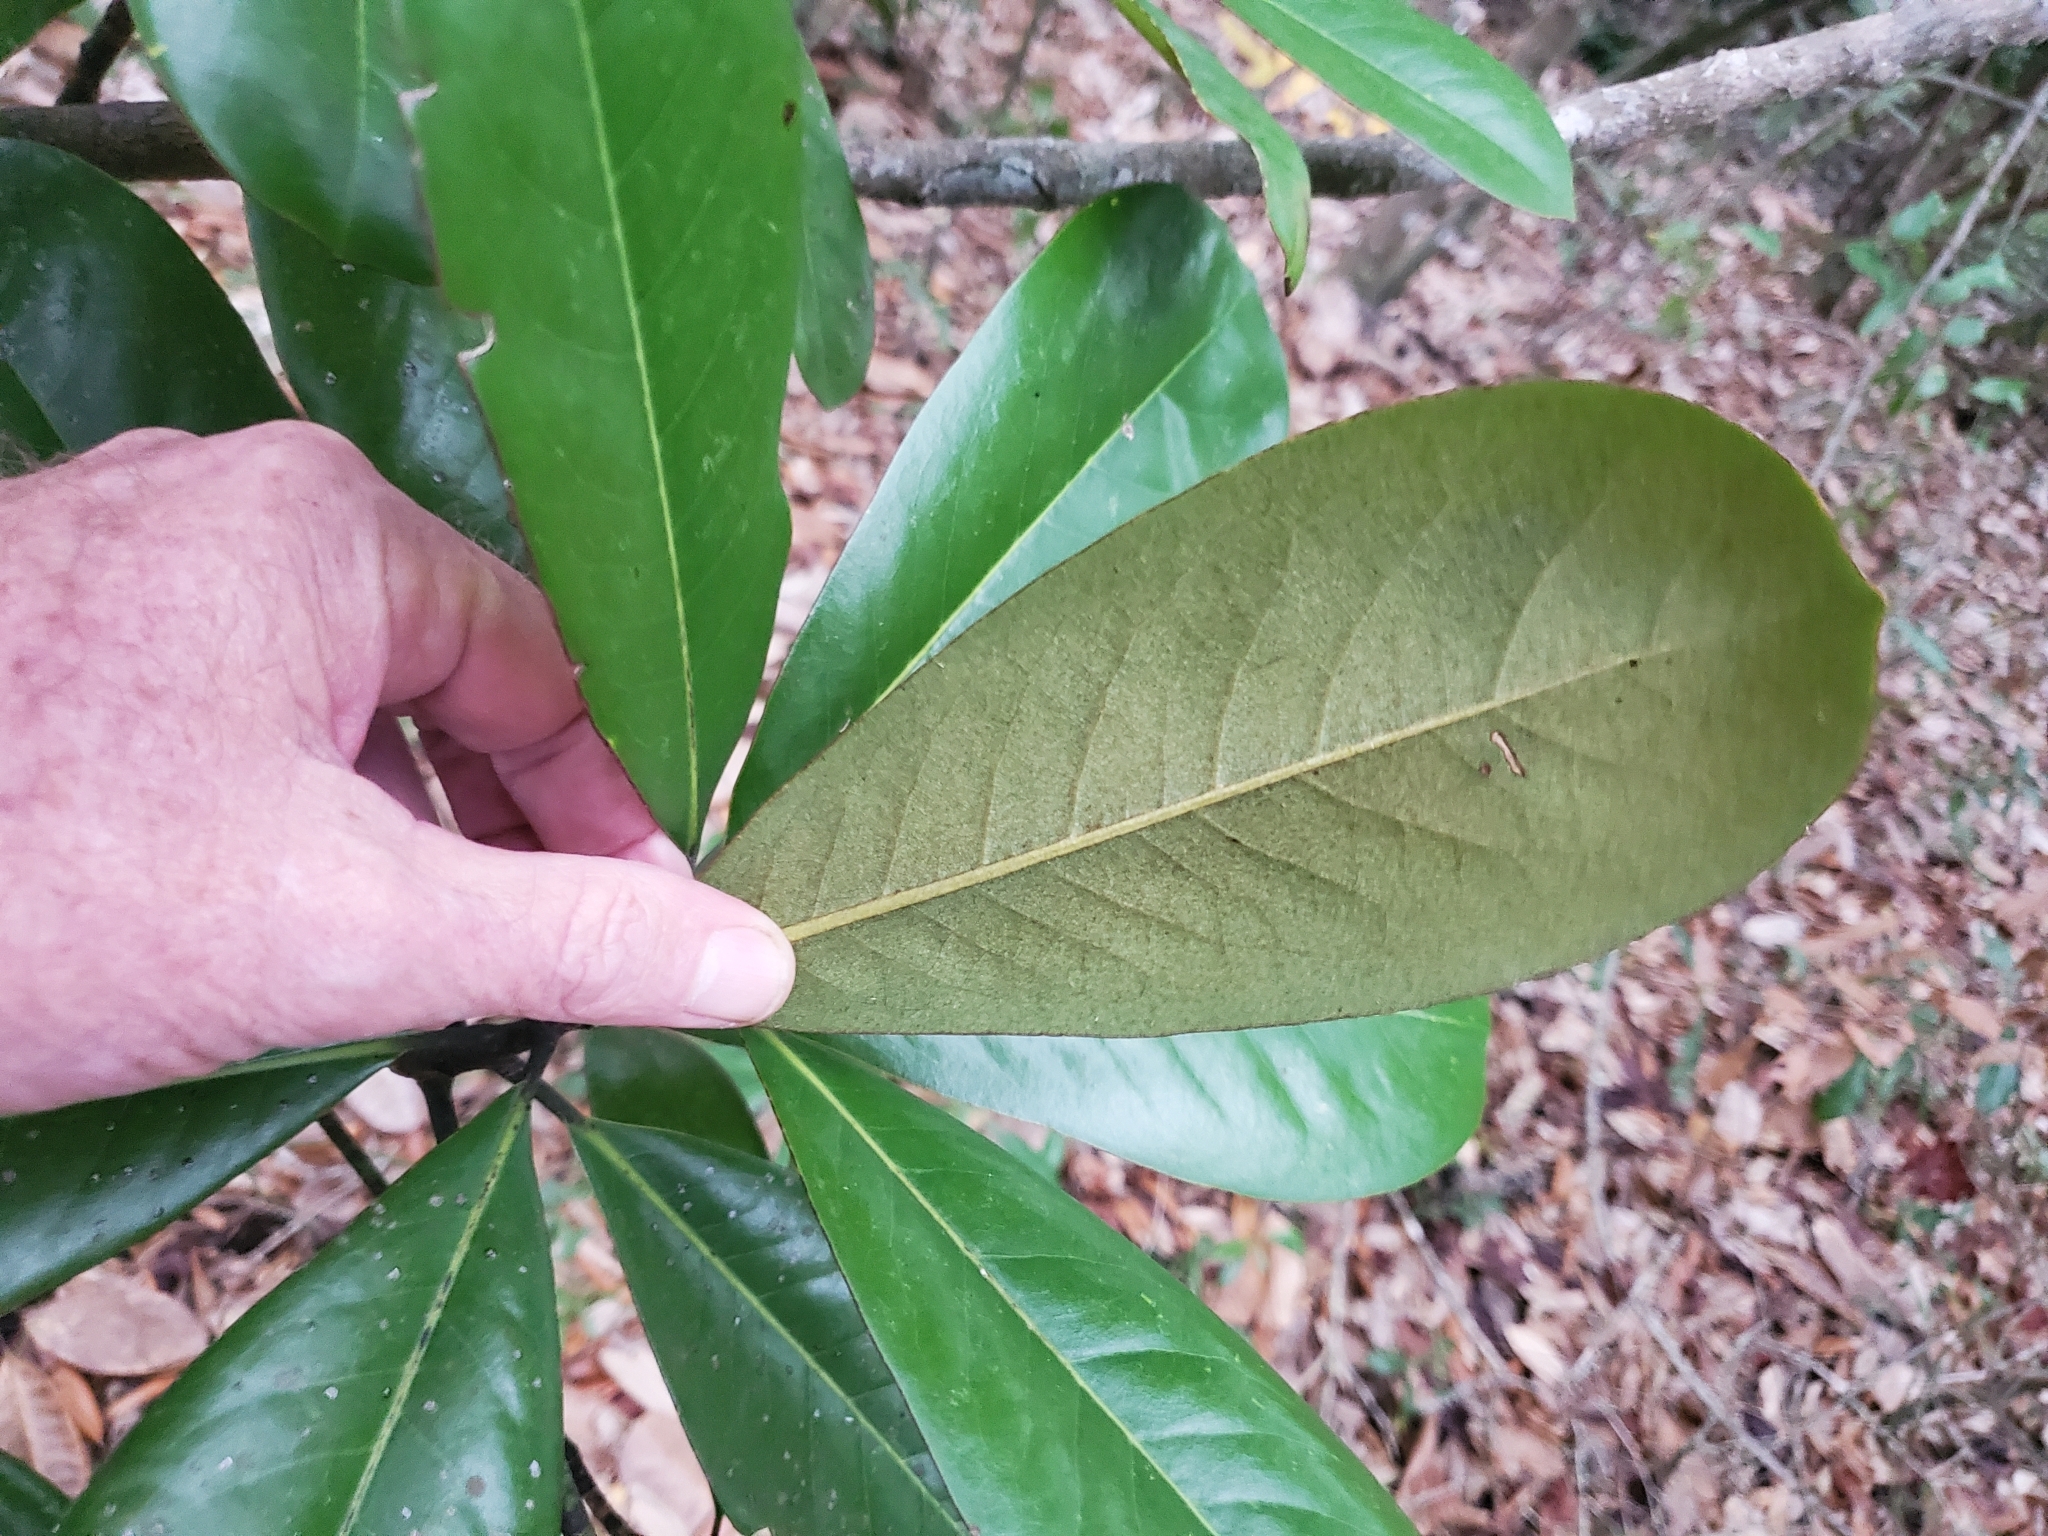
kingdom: Plantae
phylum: Tracheophyta
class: Magnoliopsida
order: Magnoliales
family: Magnoliaceae
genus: Magnolia
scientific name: Magnolia grandiflora
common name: Southern magnolia
